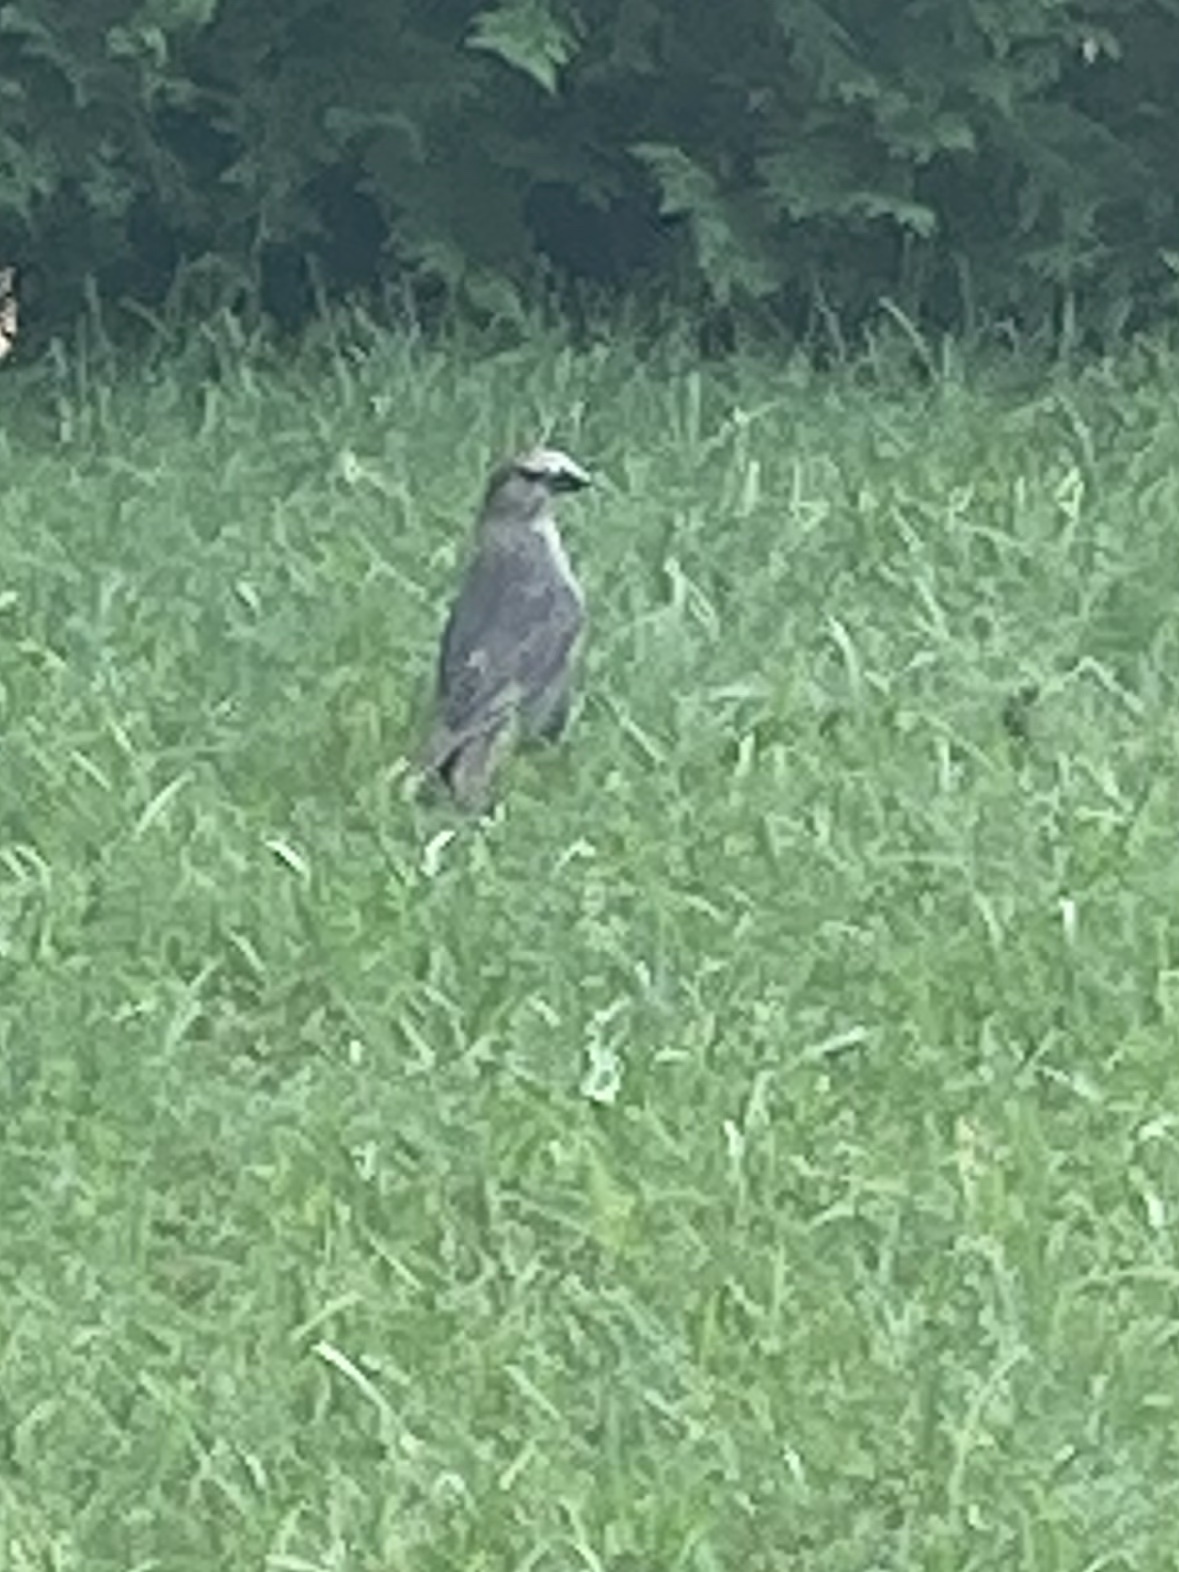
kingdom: Animalia
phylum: Chordata
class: Aves
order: Passeriformes
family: Icteridae
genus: Molothrus
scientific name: Molothrus ater
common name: Brown-headed cowbird
